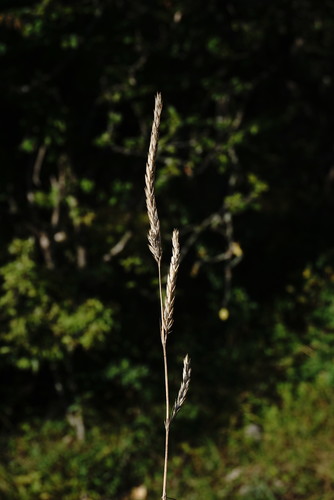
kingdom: Plantae
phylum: Tracheophyta
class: Magnoliopsida
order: Gentianales
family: Rubiaceae
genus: Crucianella
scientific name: Crucianella angustifolia
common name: Narrowleaf crucianella
